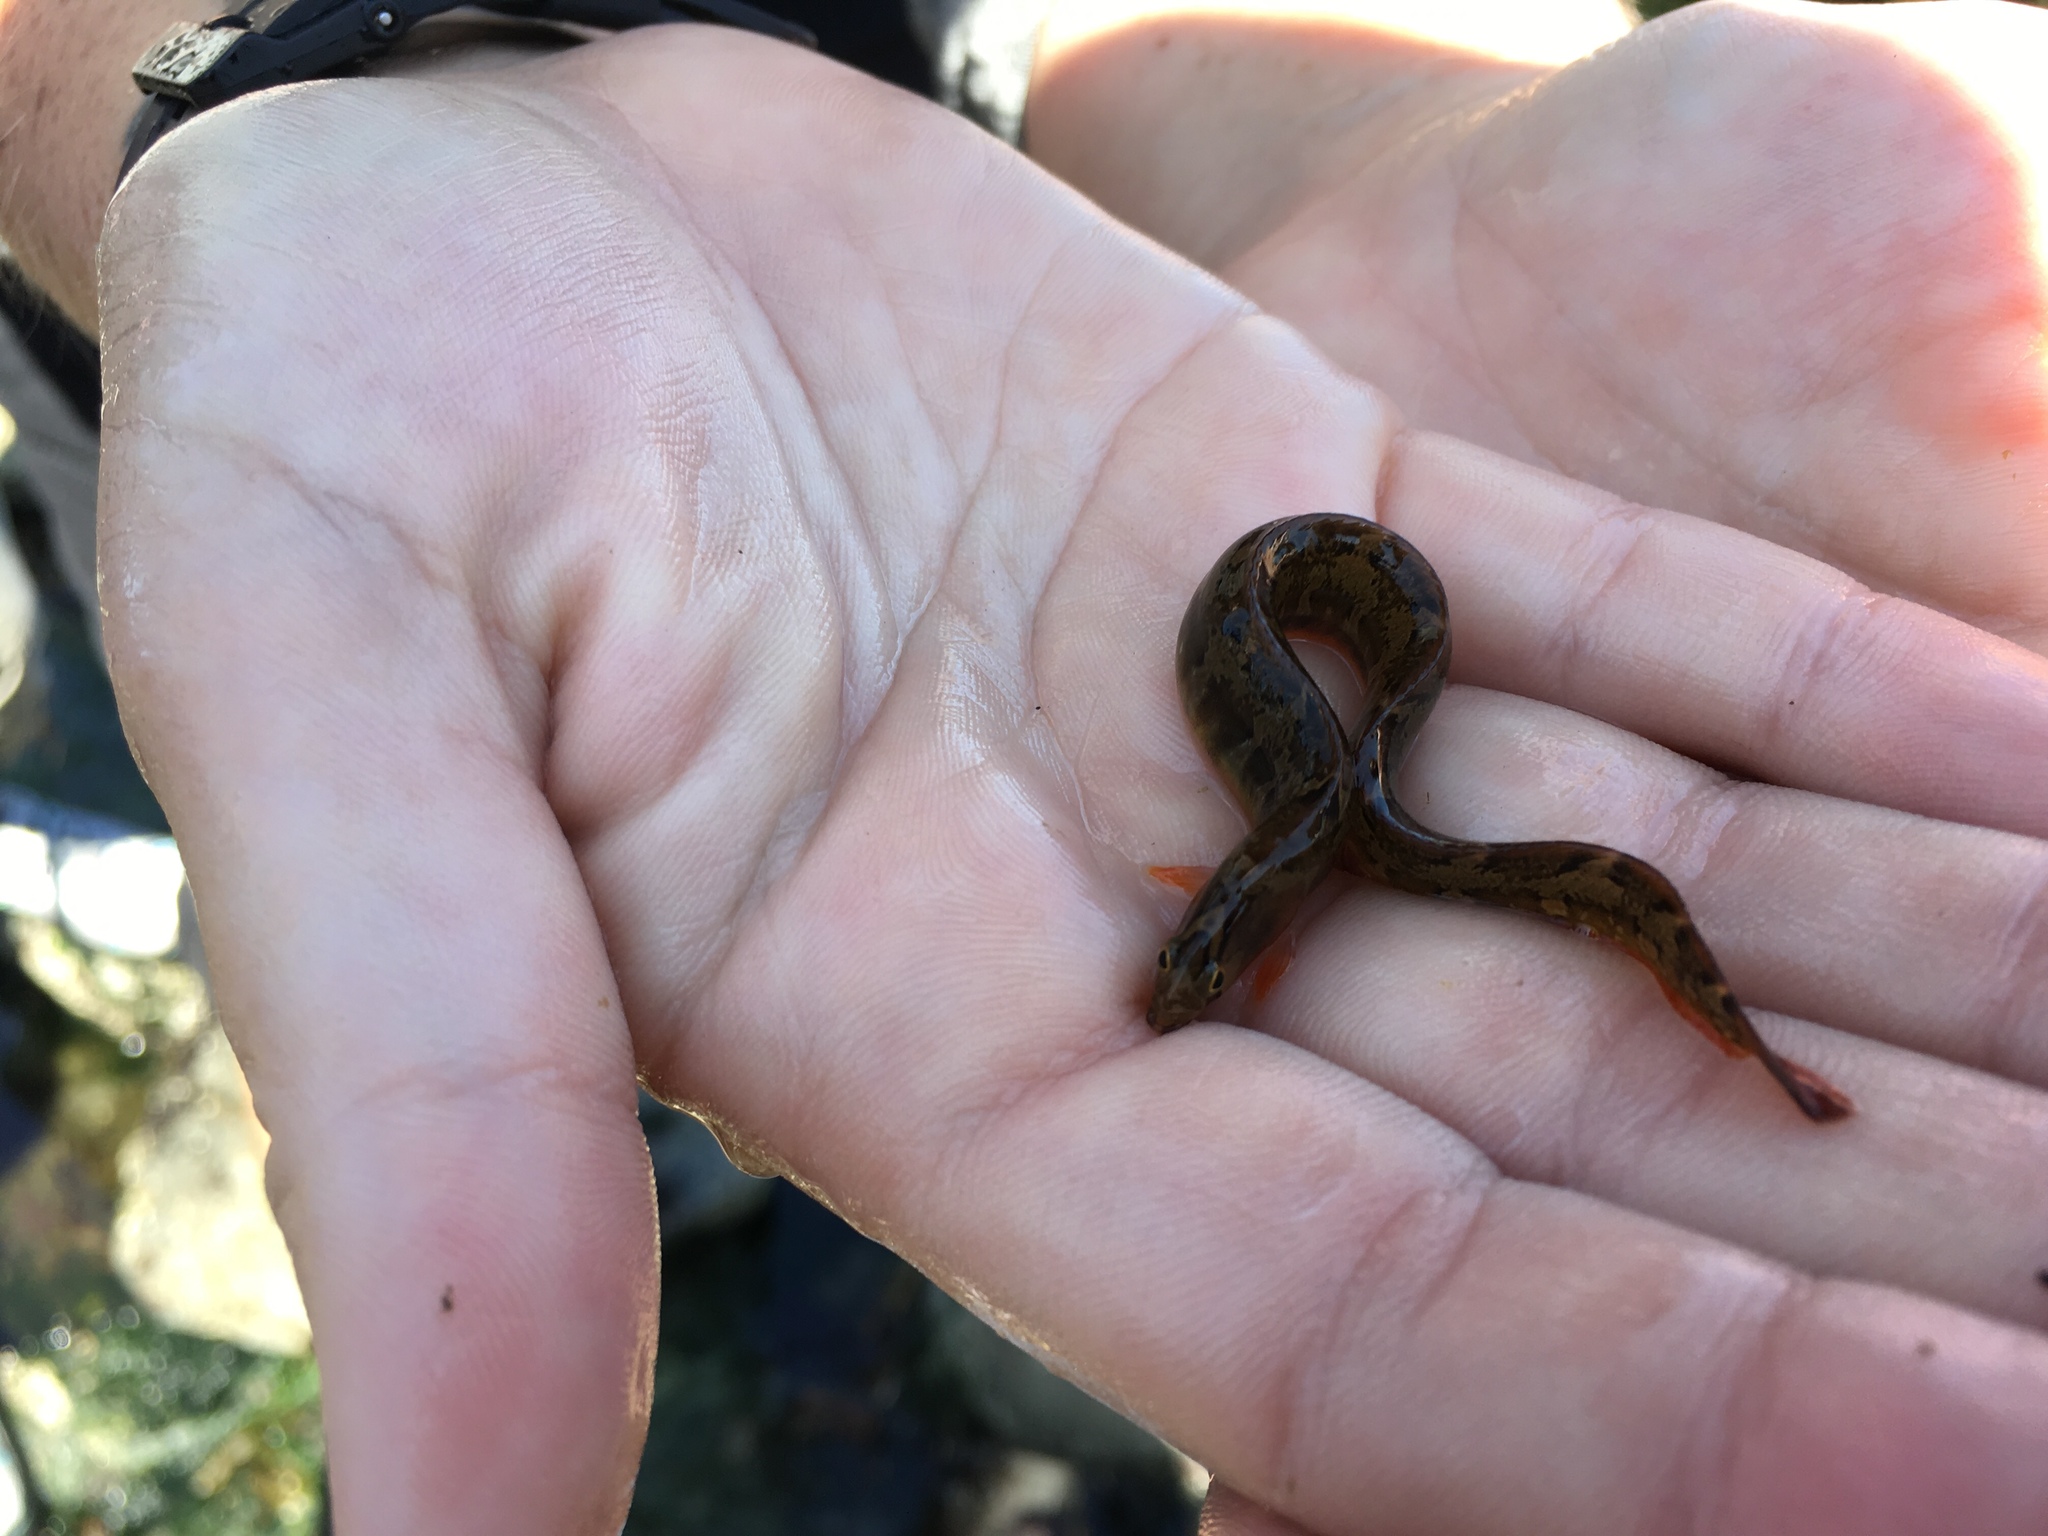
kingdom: Animalia
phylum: Chordata
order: Perciformes
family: Pholidae
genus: Pholis
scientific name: Pholis ornata
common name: Saddleback gunnel
